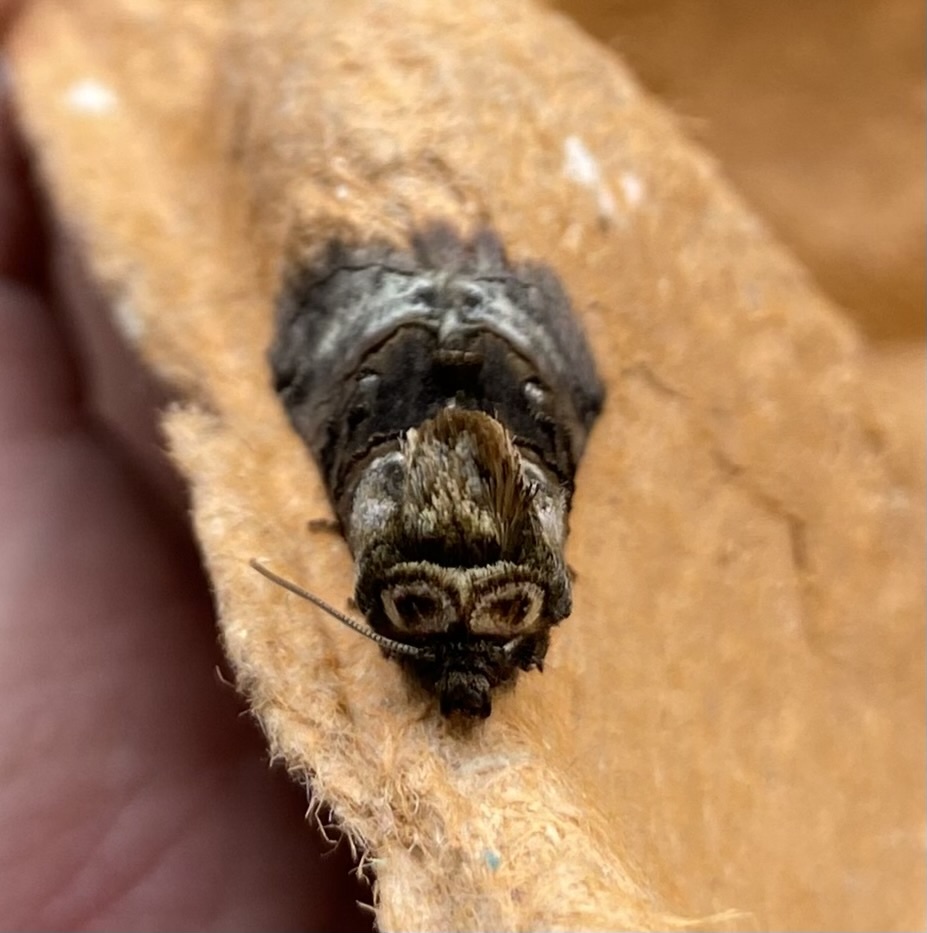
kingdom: Animalia
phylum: Arthropoda
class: Insecta
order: Lepidoptera
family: Noctuidae
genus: Abrostola
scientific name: Abrostola tripartita
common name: Spectacle
